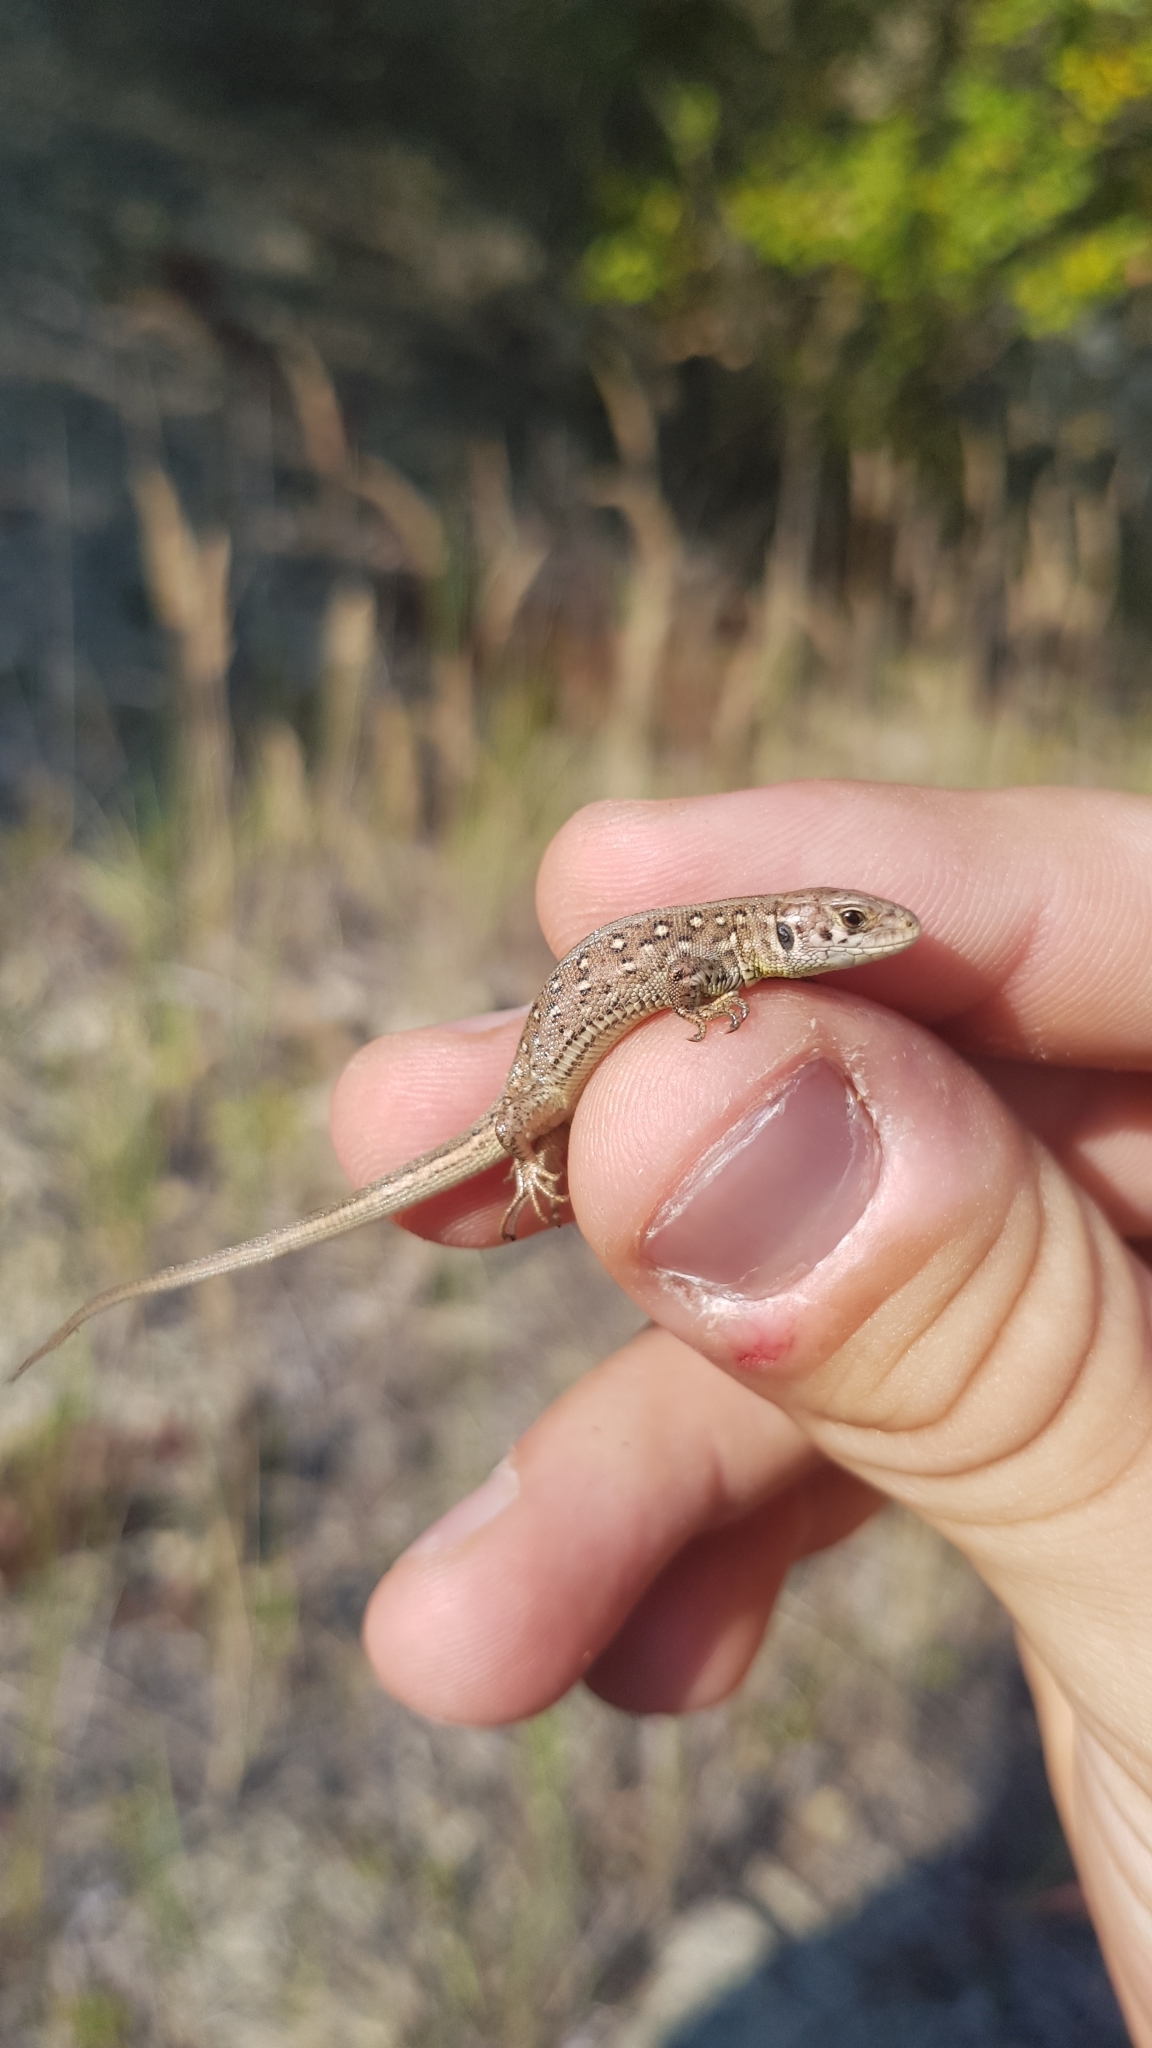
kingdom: Animalia
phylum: Chordata
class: Squamata
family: Lacertidae
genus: Lacerta
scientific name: Lacerta agilis
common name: Sand lizard
